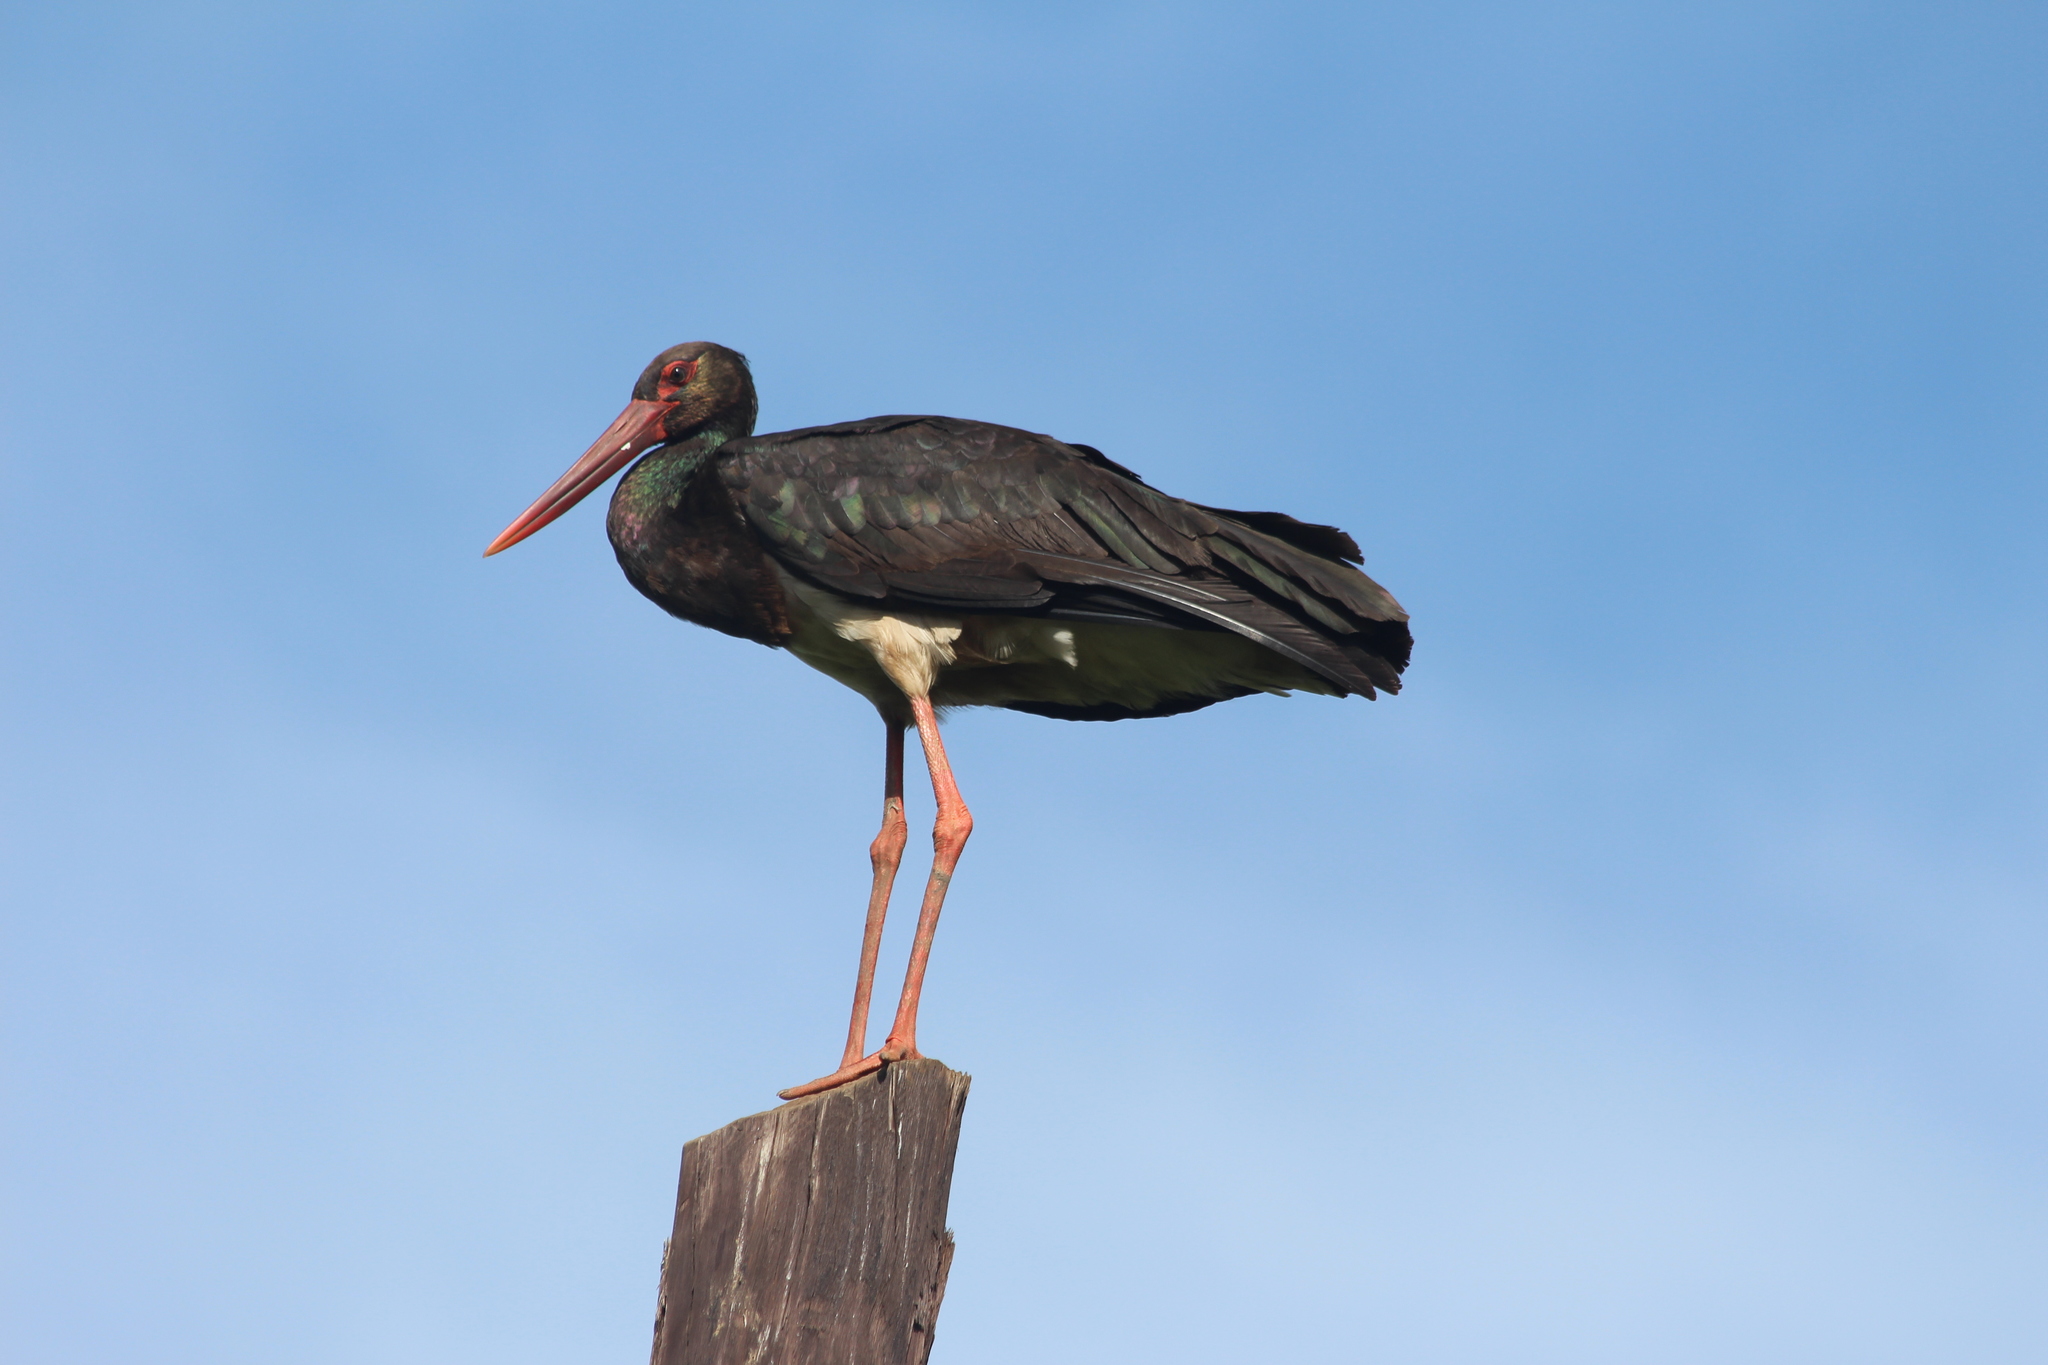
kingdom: Animalia
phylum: Chordata
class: Aves
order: Ciconiiformes
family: Ciconiidae
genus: Ciconia
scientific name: Ciconia nigra
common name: Black stork
